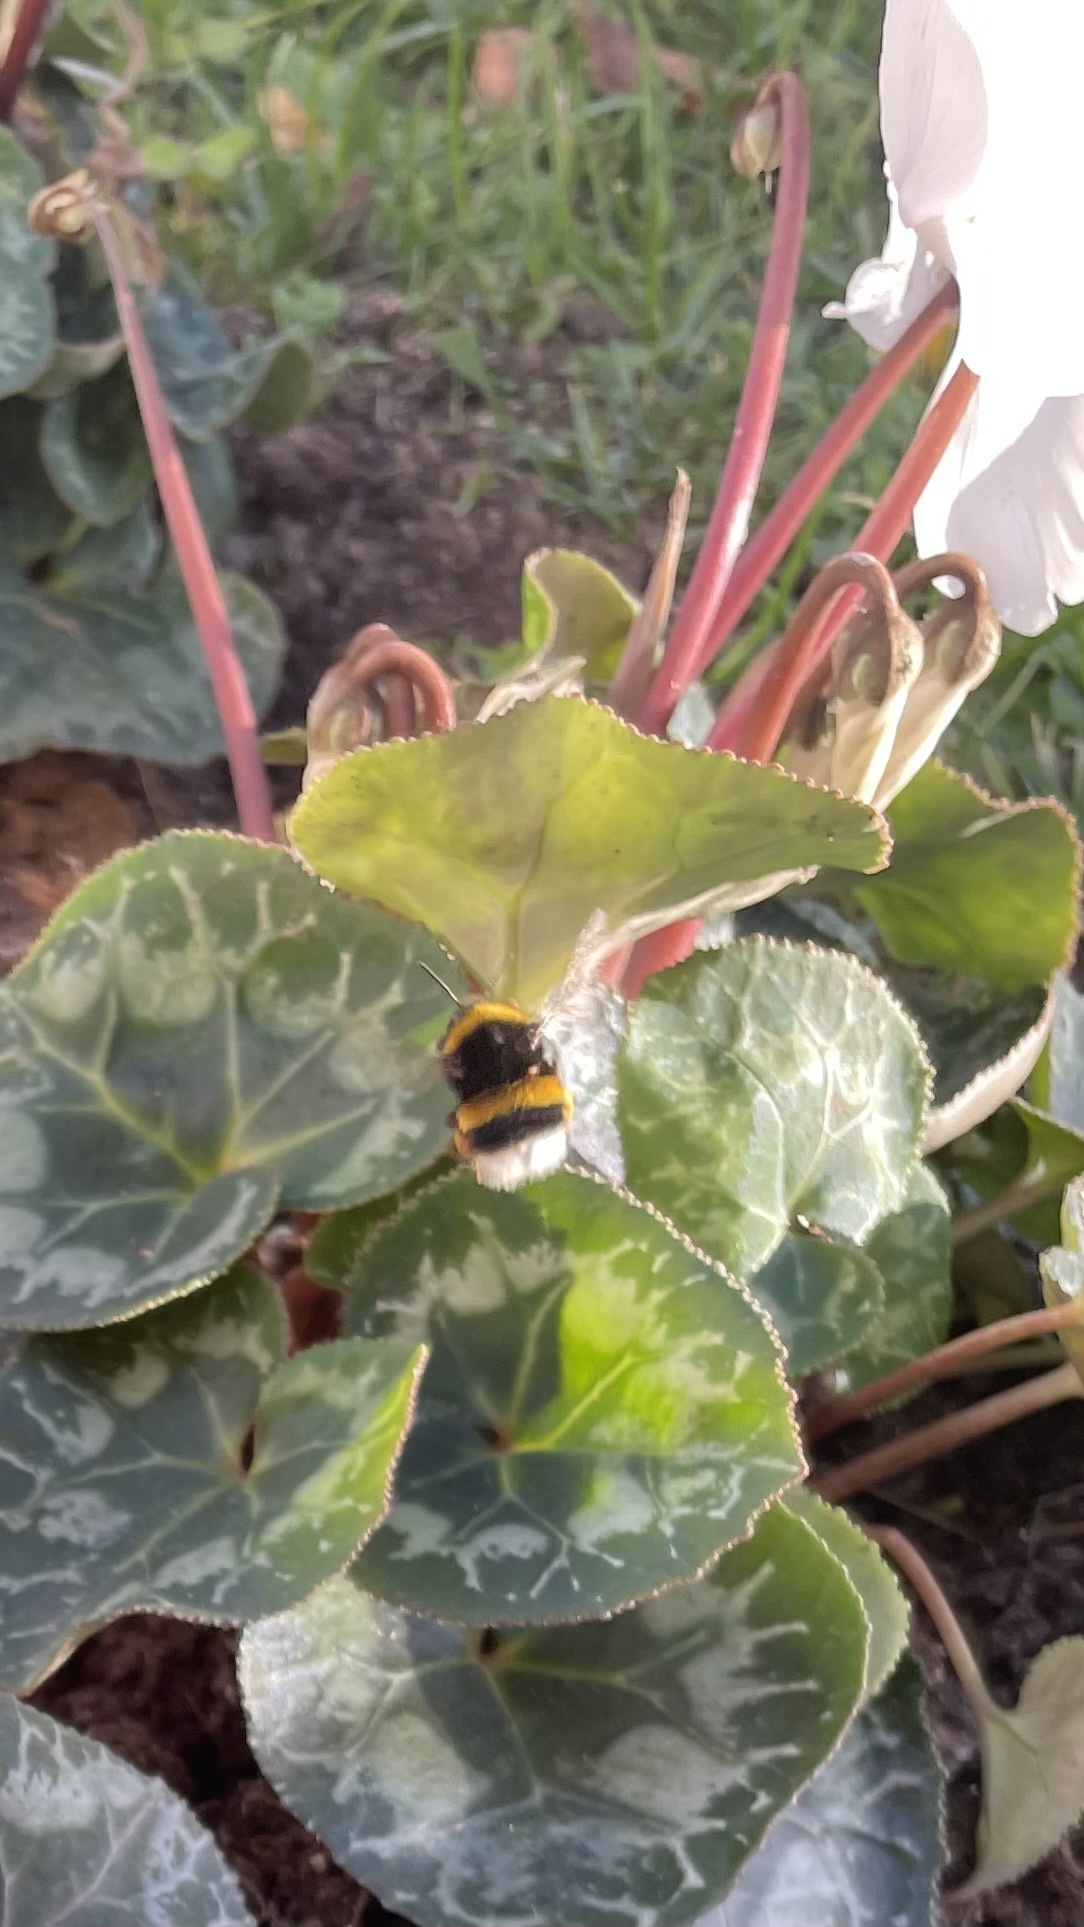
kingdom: Animalia
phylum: Arthropoda
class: Insecta
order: Hymenoptera
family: Apidae
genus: Bombus
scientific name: Bombus terrestris
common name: Buff-tailed bumblebee
